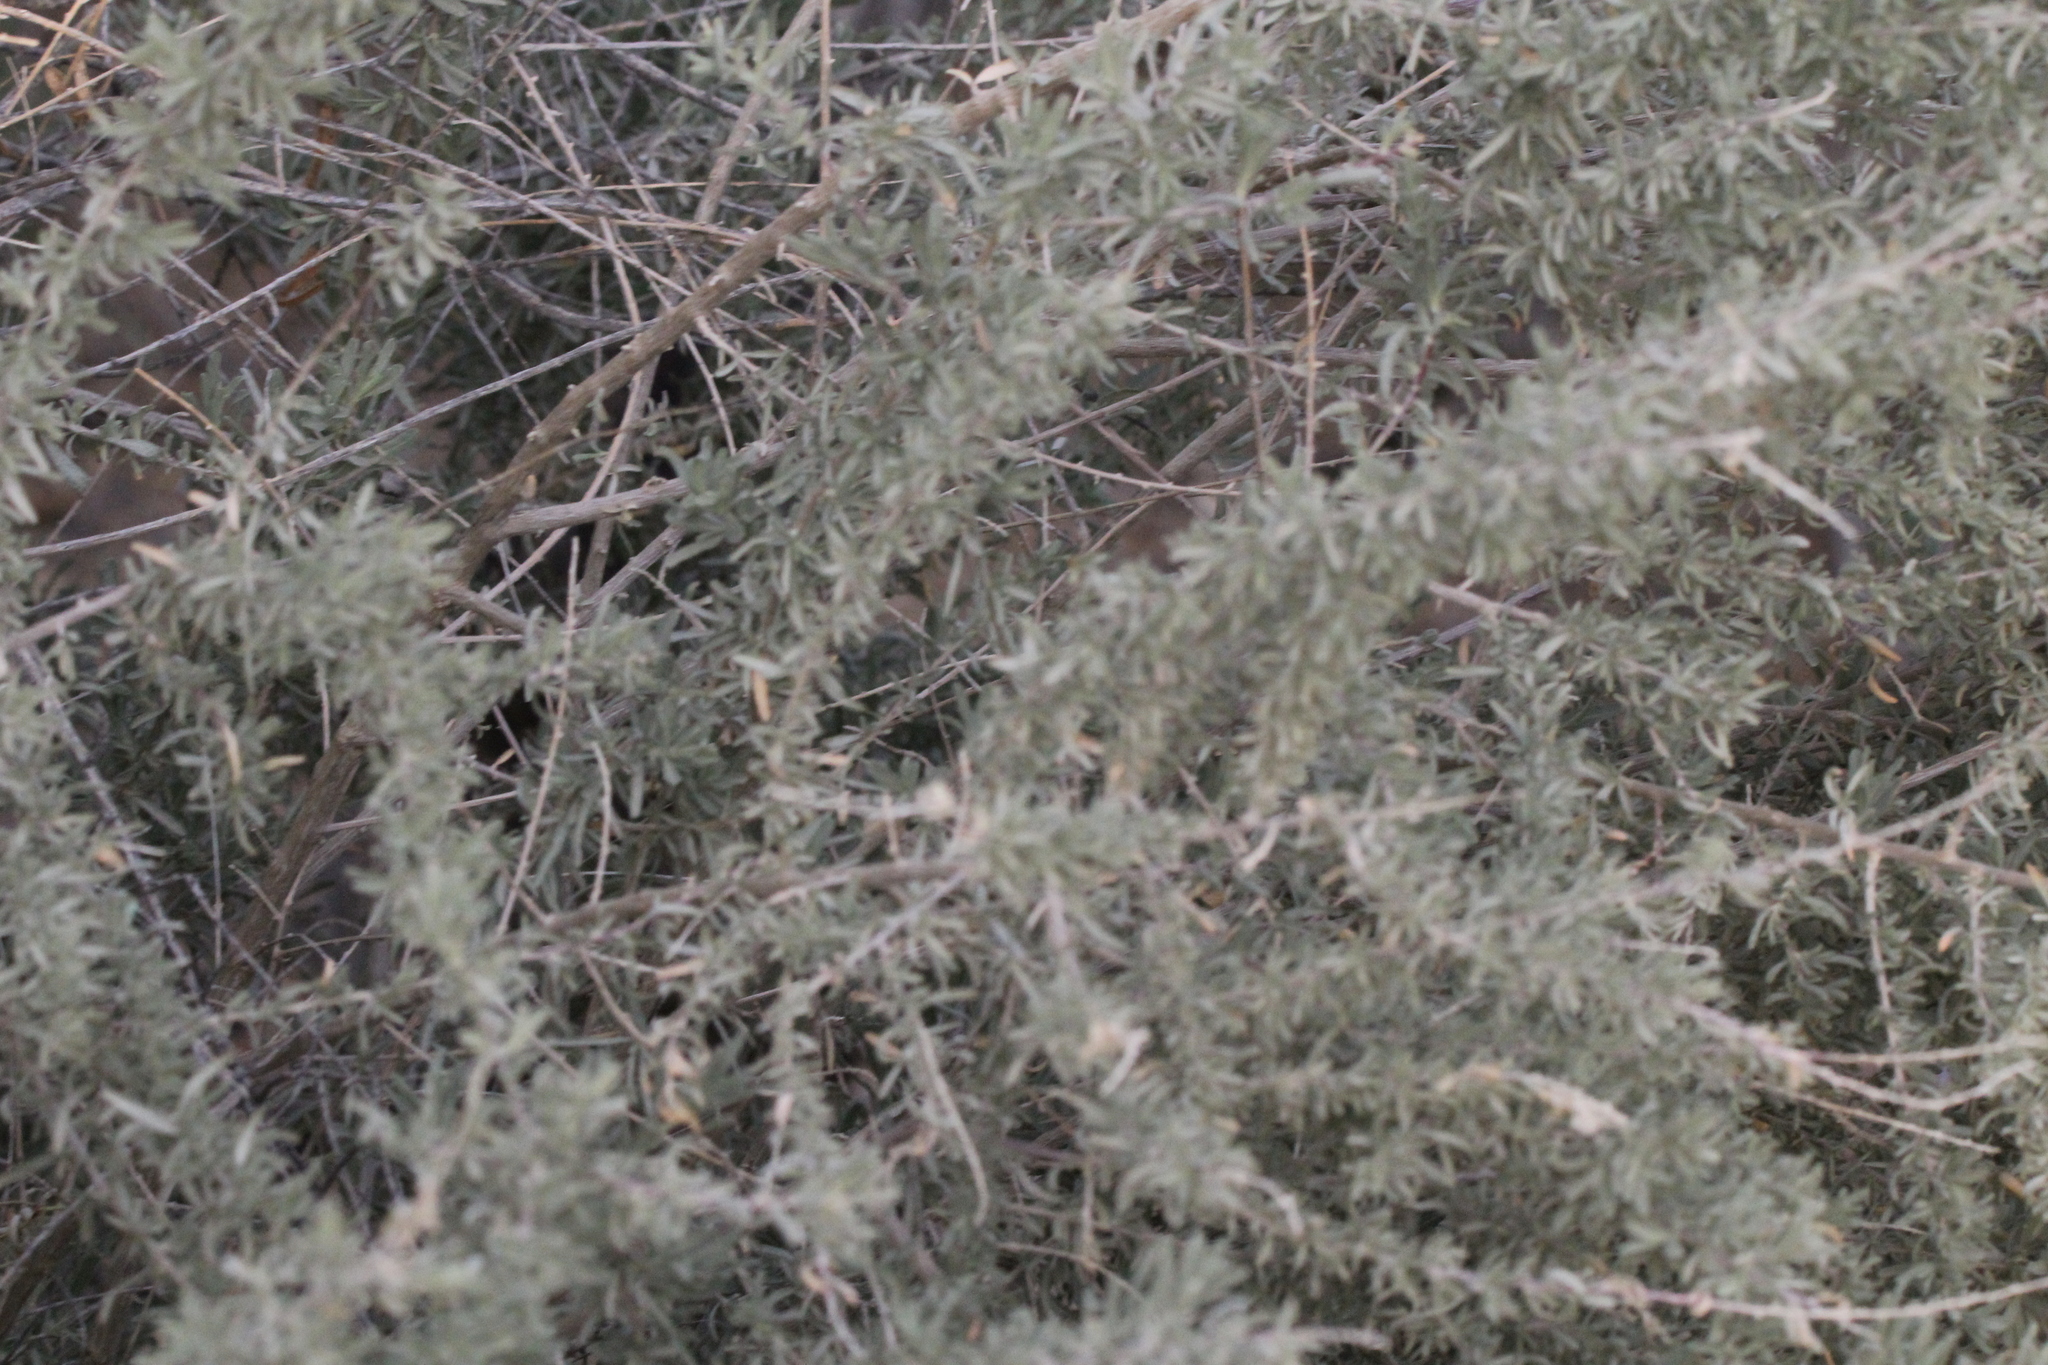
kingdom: Plantae
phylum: Tracheophyta
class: Magnoliopsida
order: Caryophyllales
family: Amaranthaceae
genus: Atriplex
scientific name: Atriplex canescens
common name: Four-wing saltbush
